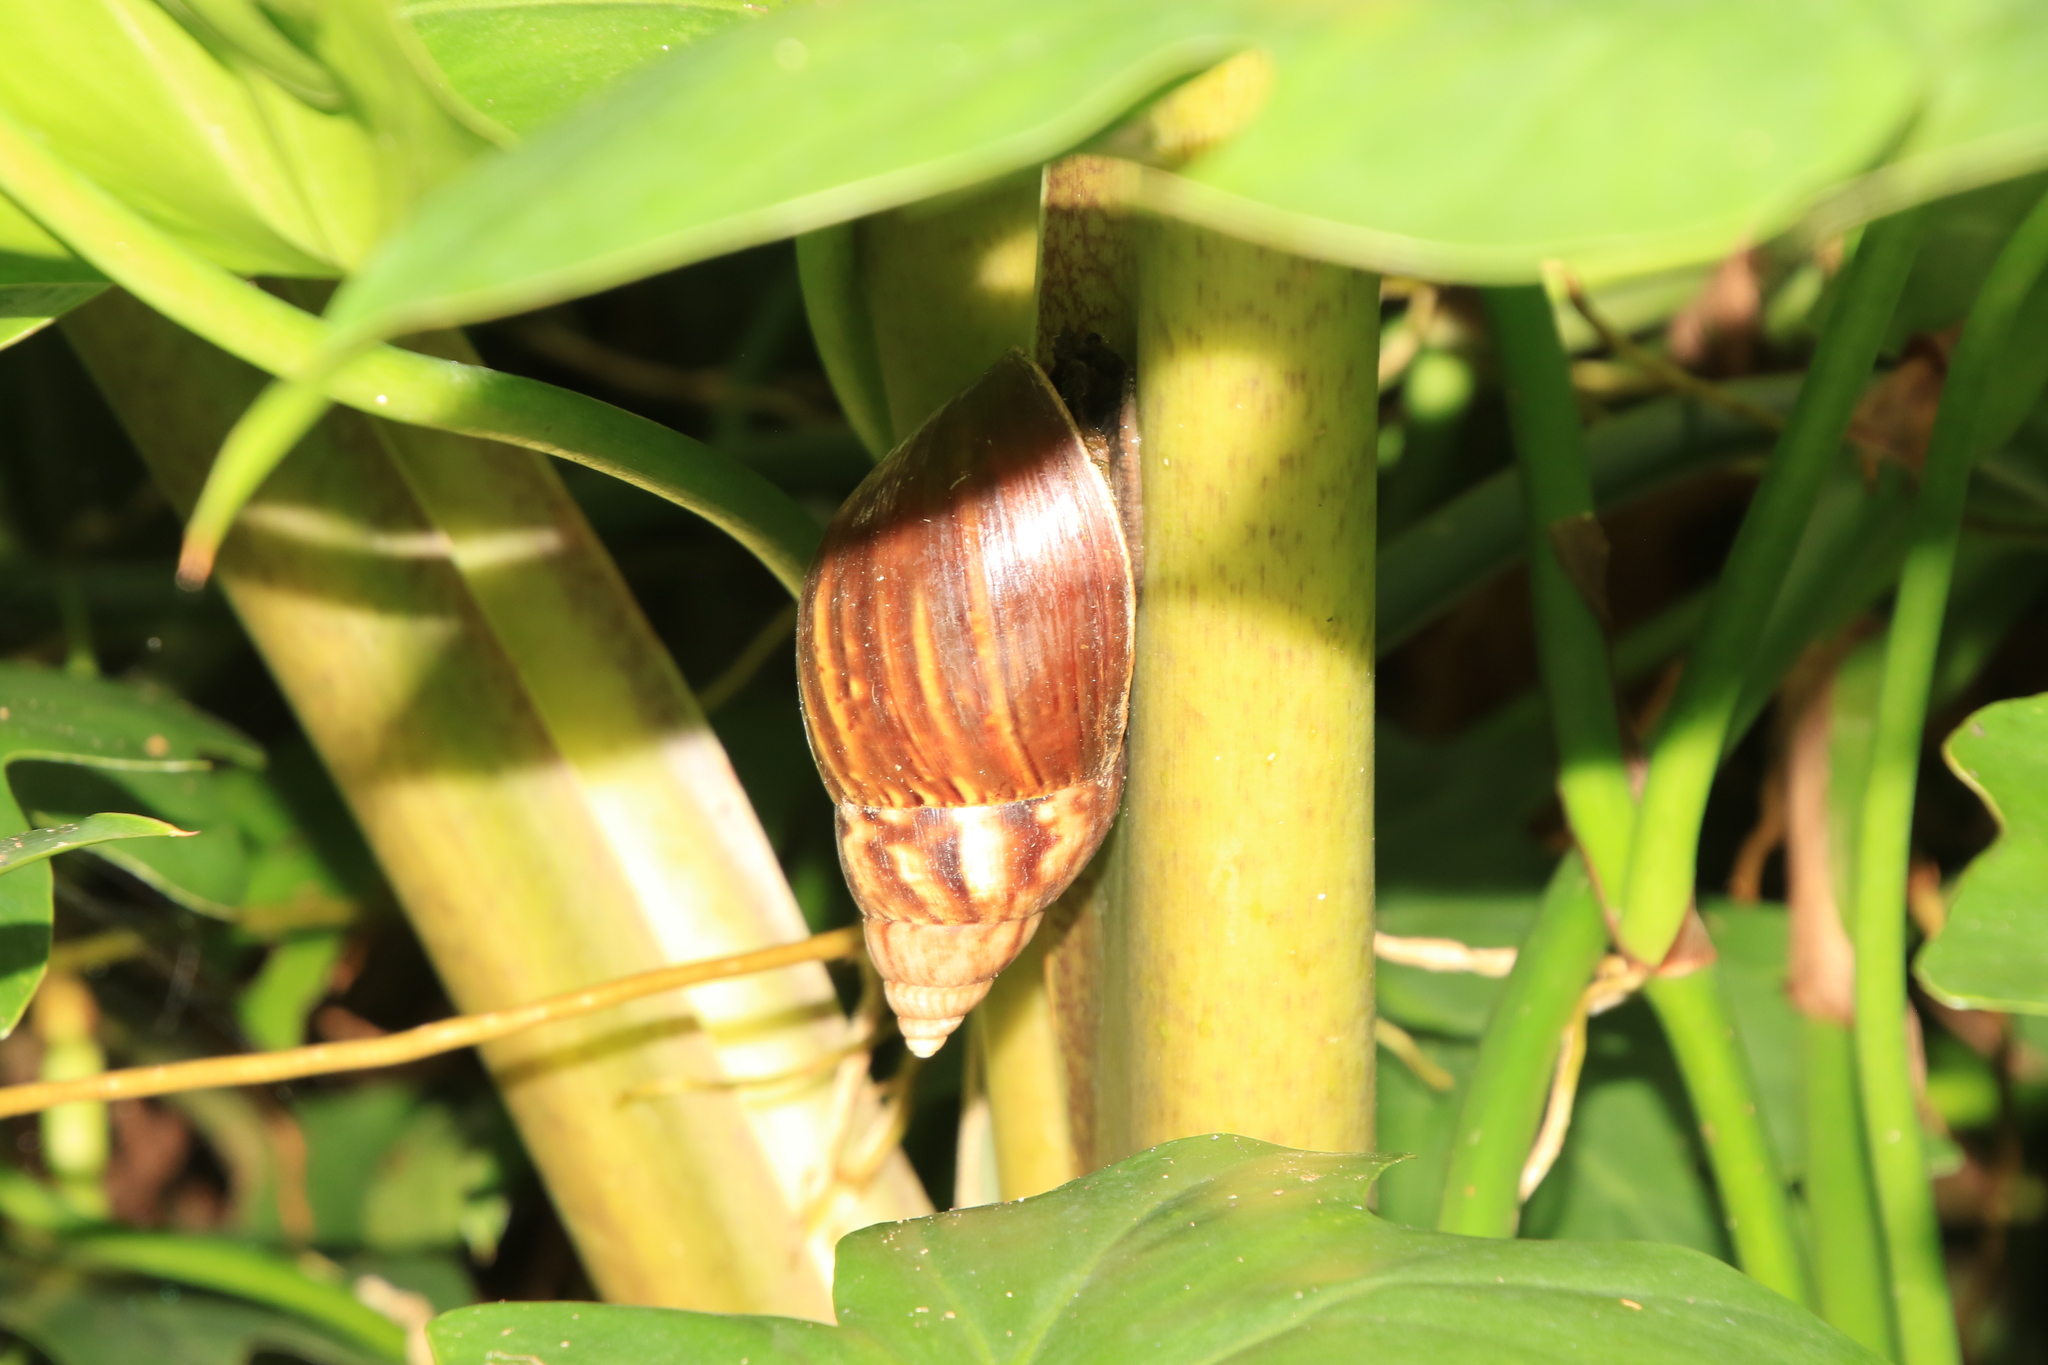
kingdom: Animalia
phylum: Mollusca
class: Gastropoda
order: Stylommatophora
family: Achatinidae
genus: Lissachatina
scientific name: Lissachatina fulica
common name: Giant african snail
